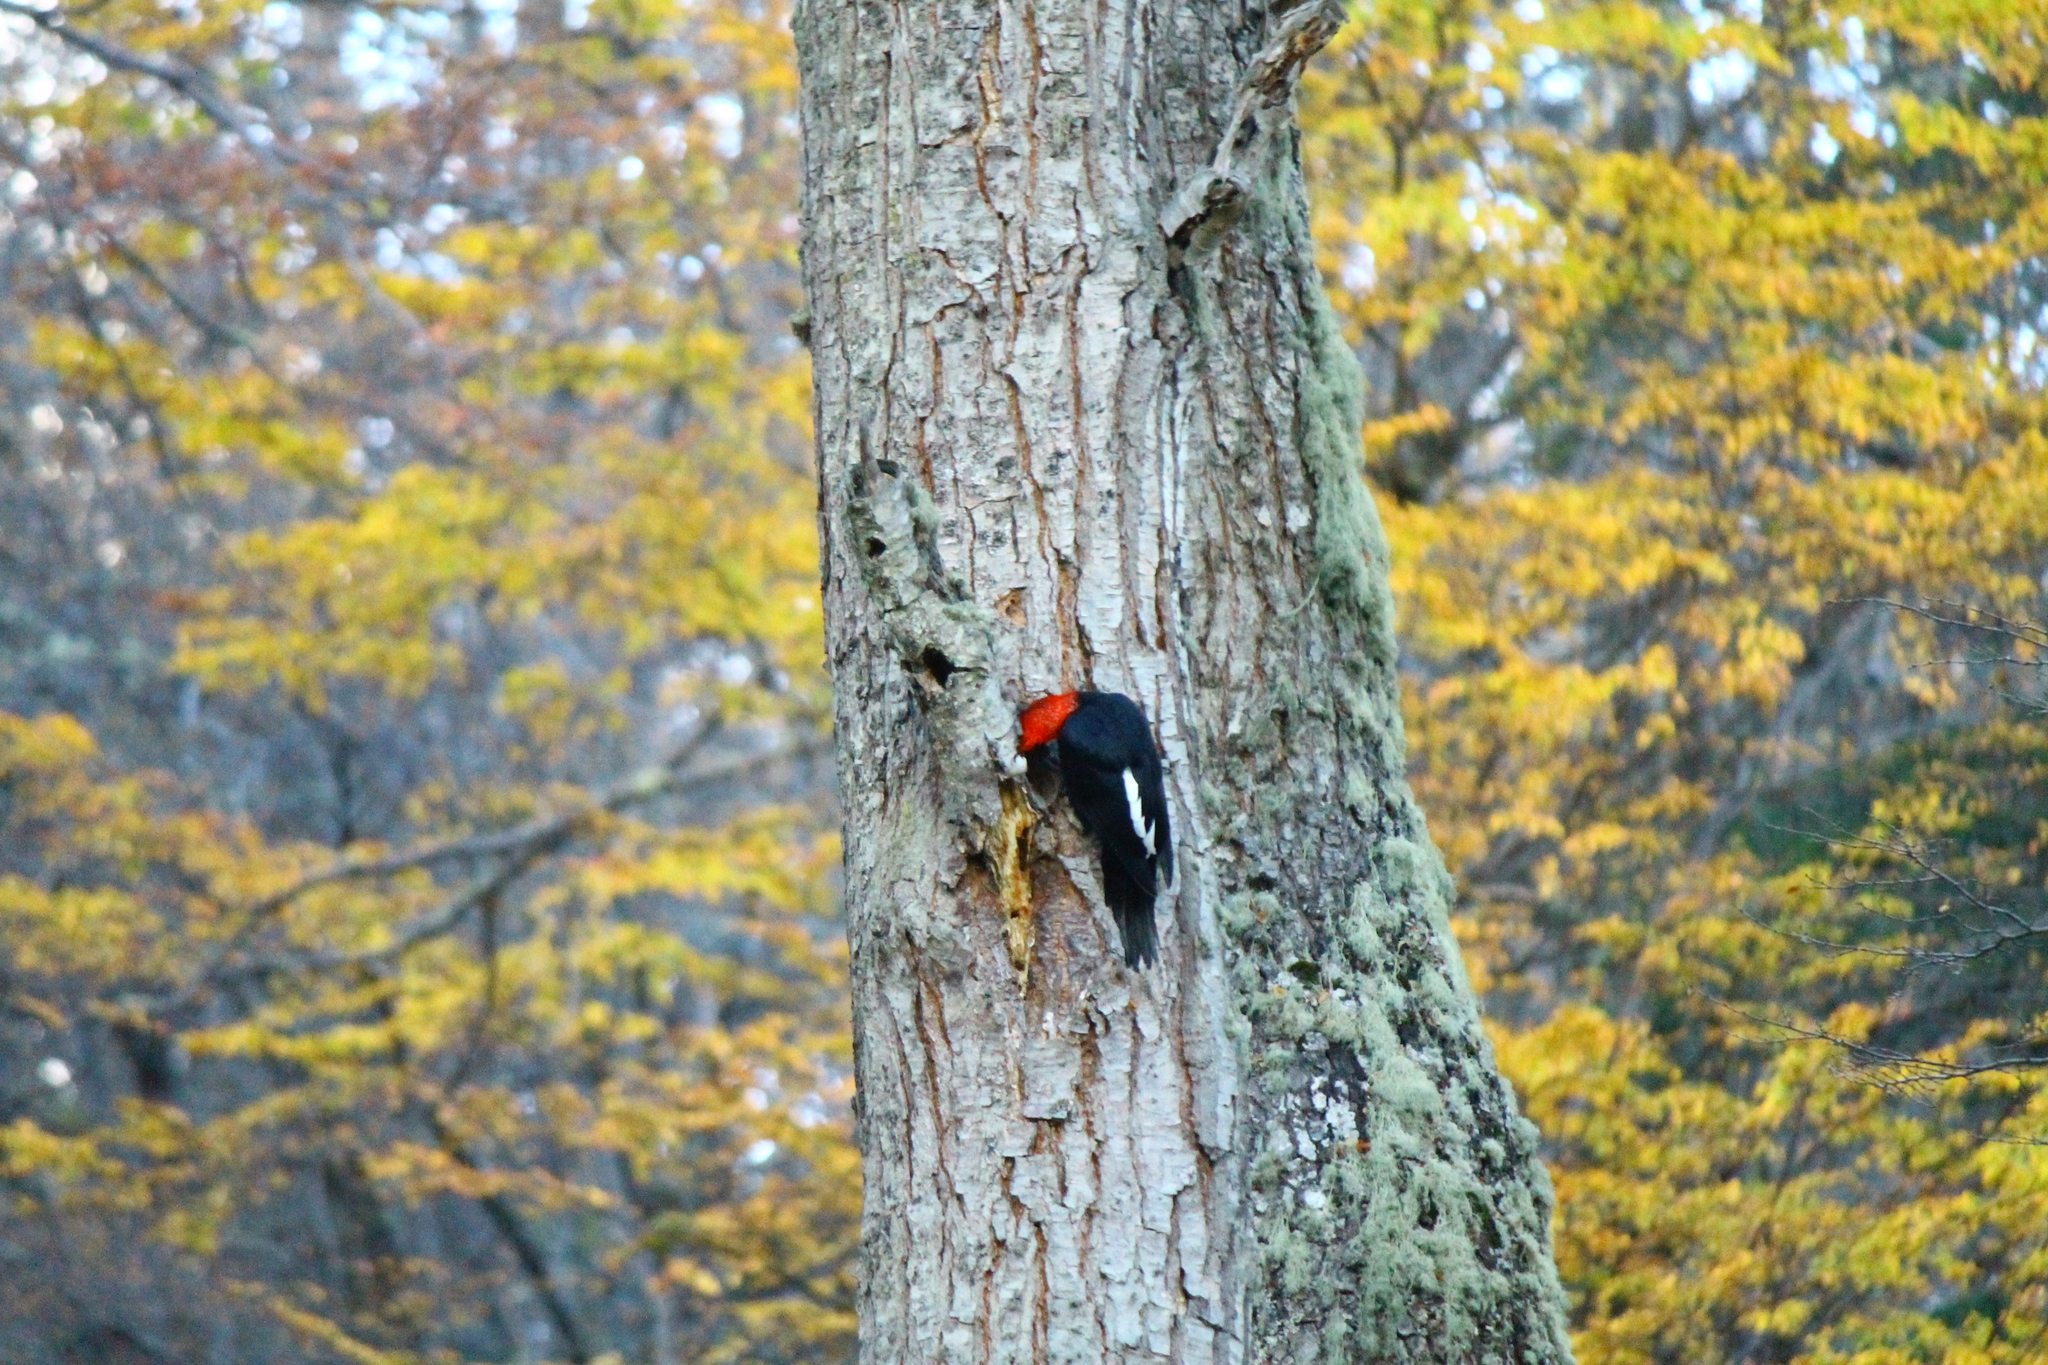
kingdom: Animalia
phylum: Chordata
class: Aves
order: Piciformes
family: Picidae
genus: Campephilus
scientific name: Campephilus magellanicus
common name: Magellanic woodpecker
